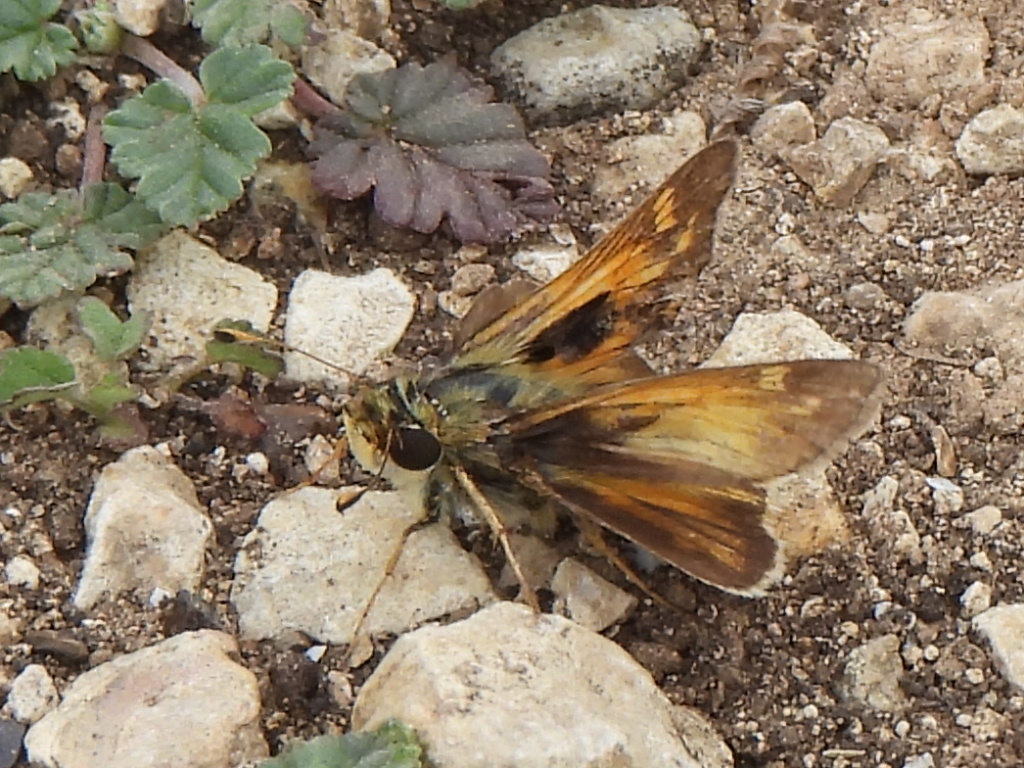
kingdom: Animalia
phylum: Arthropoda
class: Insecta
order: Lepidoptera
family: Hesperiidae
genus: Atalopedes
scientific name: Atalopedes
